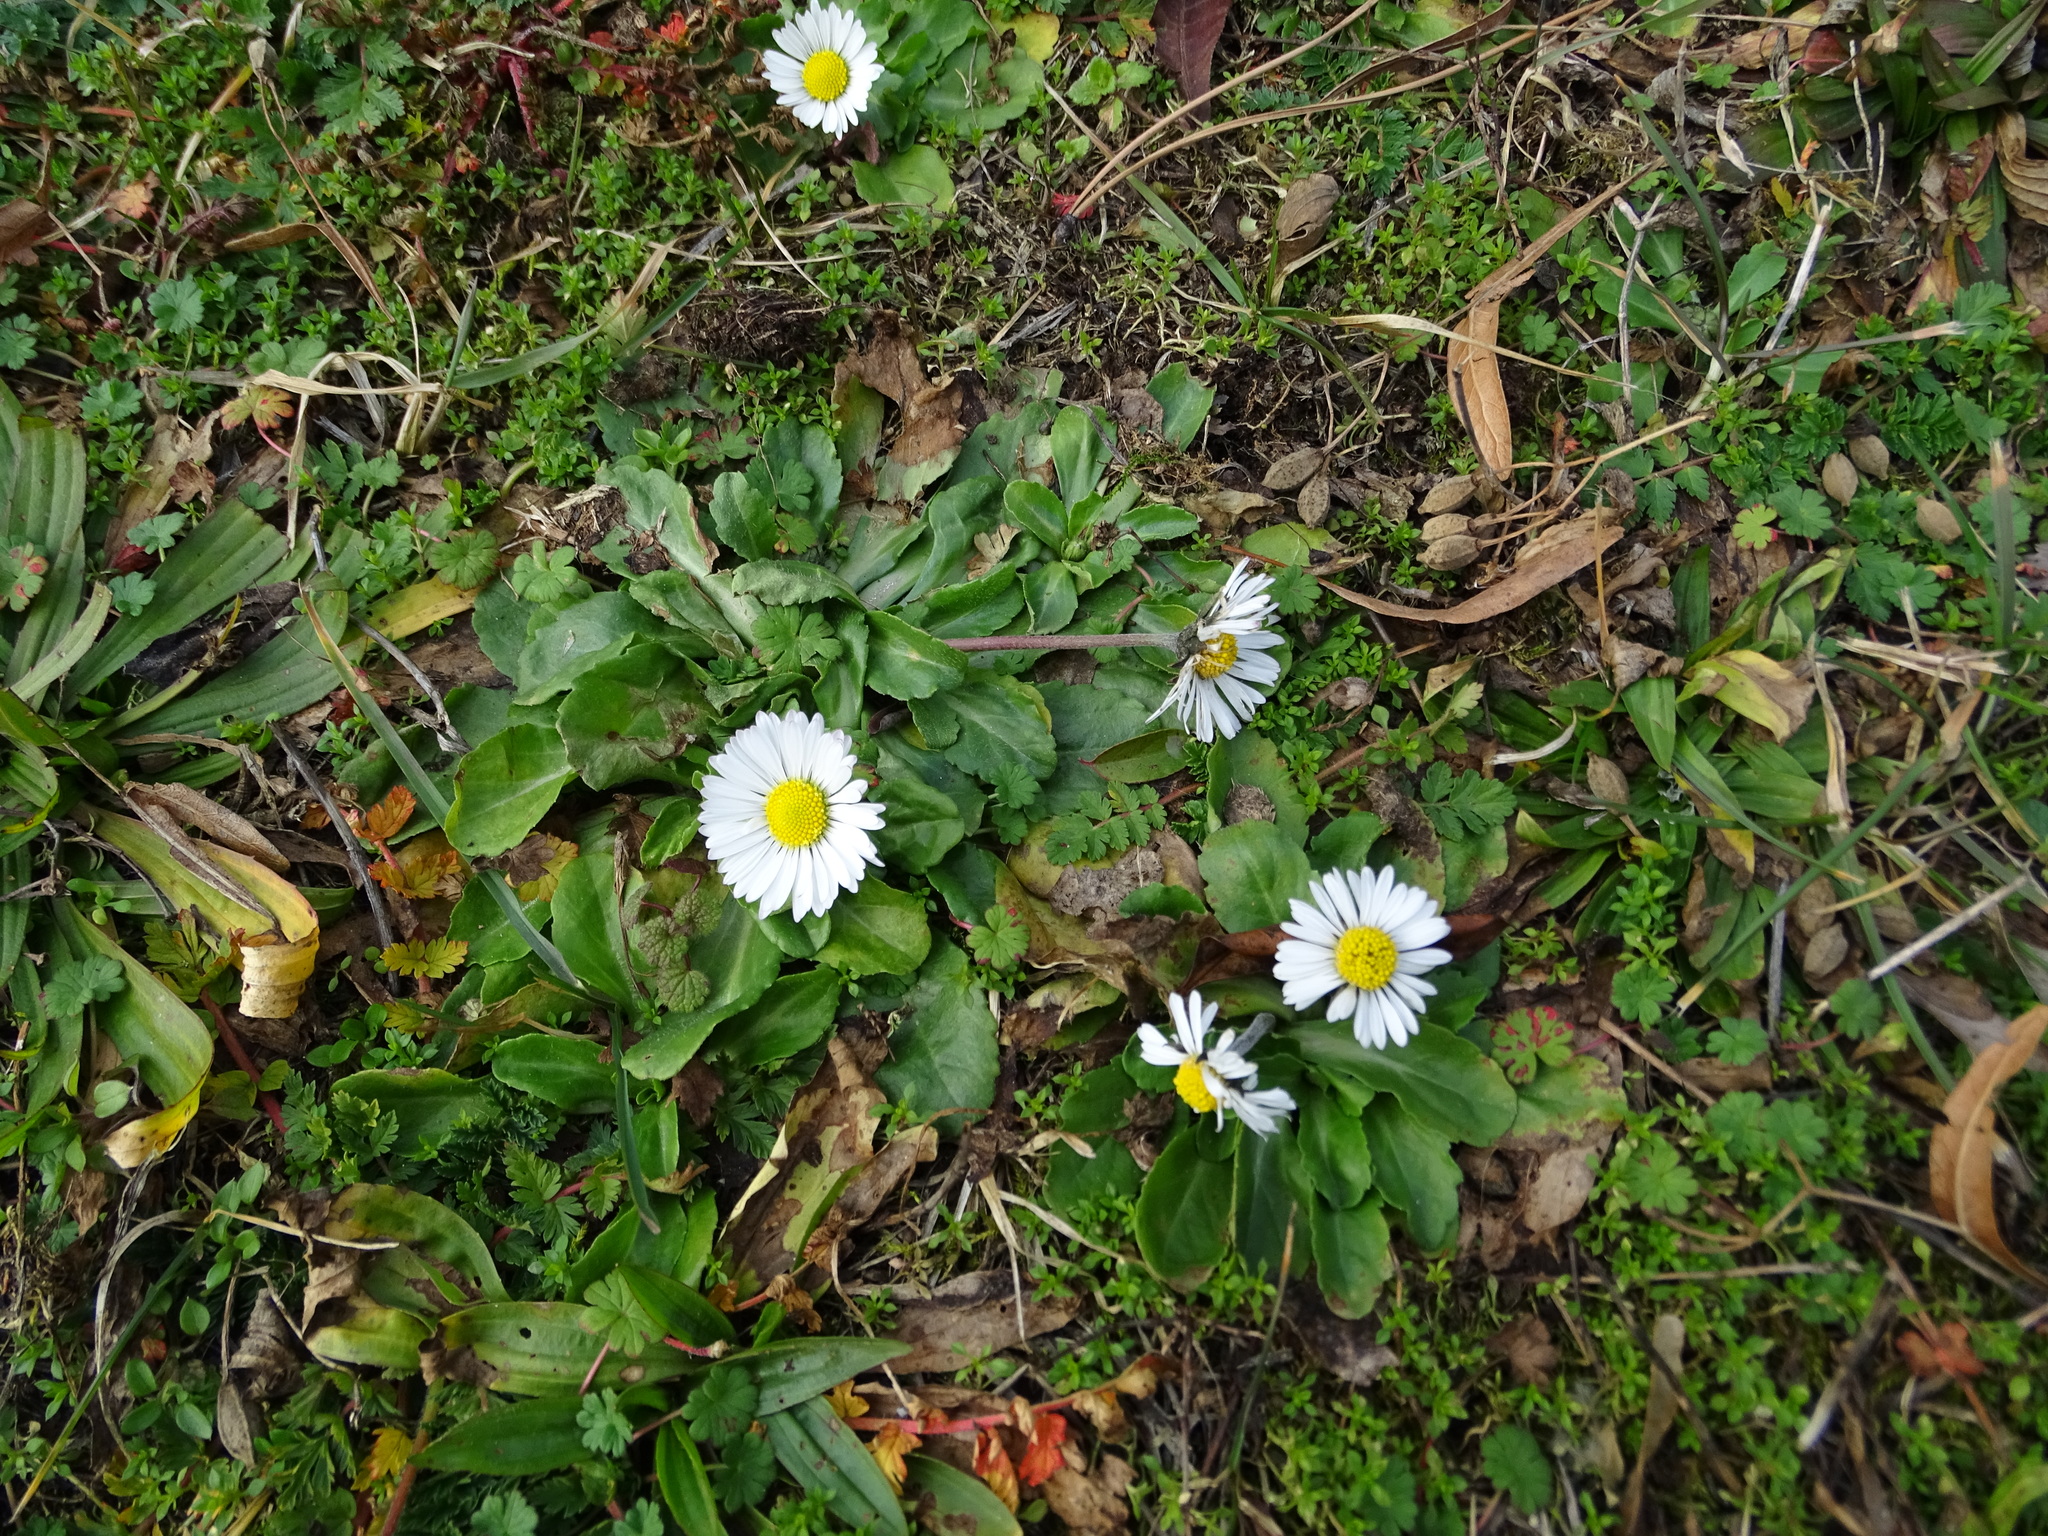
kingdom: Plantae
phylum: Tracheophyta
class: Magnoliopsida
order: Asterales
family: Asteraceae
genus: Bellis
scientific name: Bellis perennis
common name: Lawndaisy
